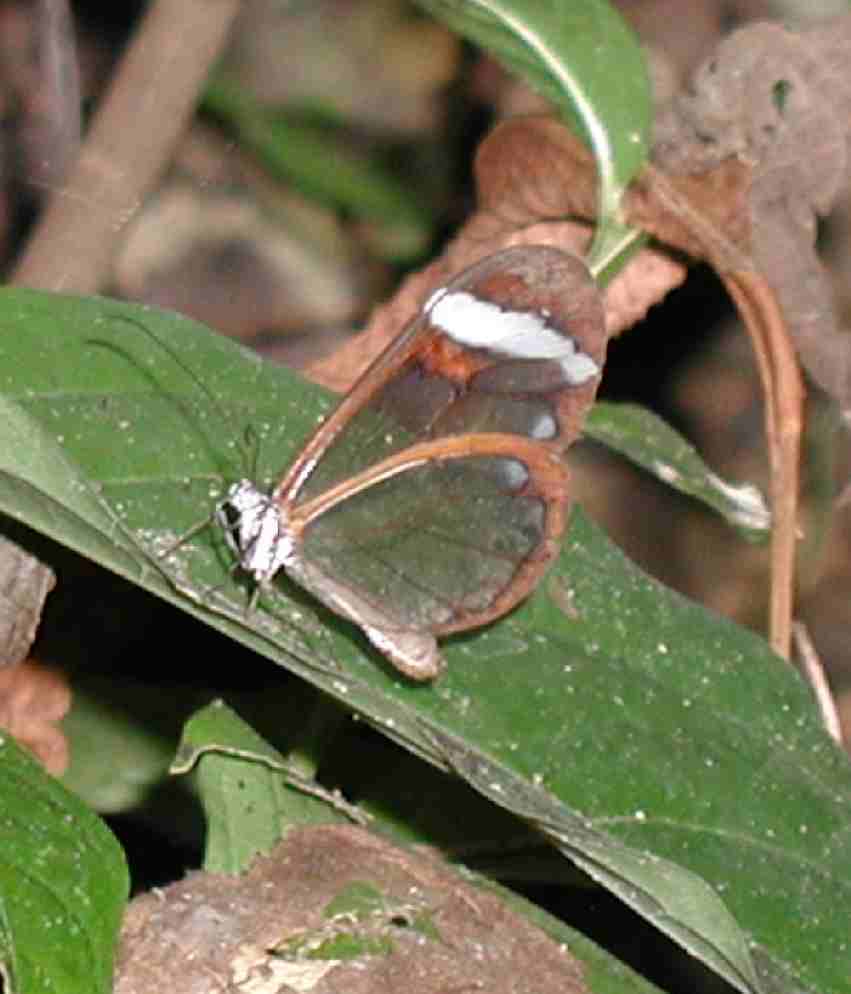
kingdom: Animalia
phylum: Arthropoda
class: Insecta
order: Lepidoptera
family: Nymphalidae
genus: Greta
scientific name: Greta morgane
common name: Thick-tipped greta
